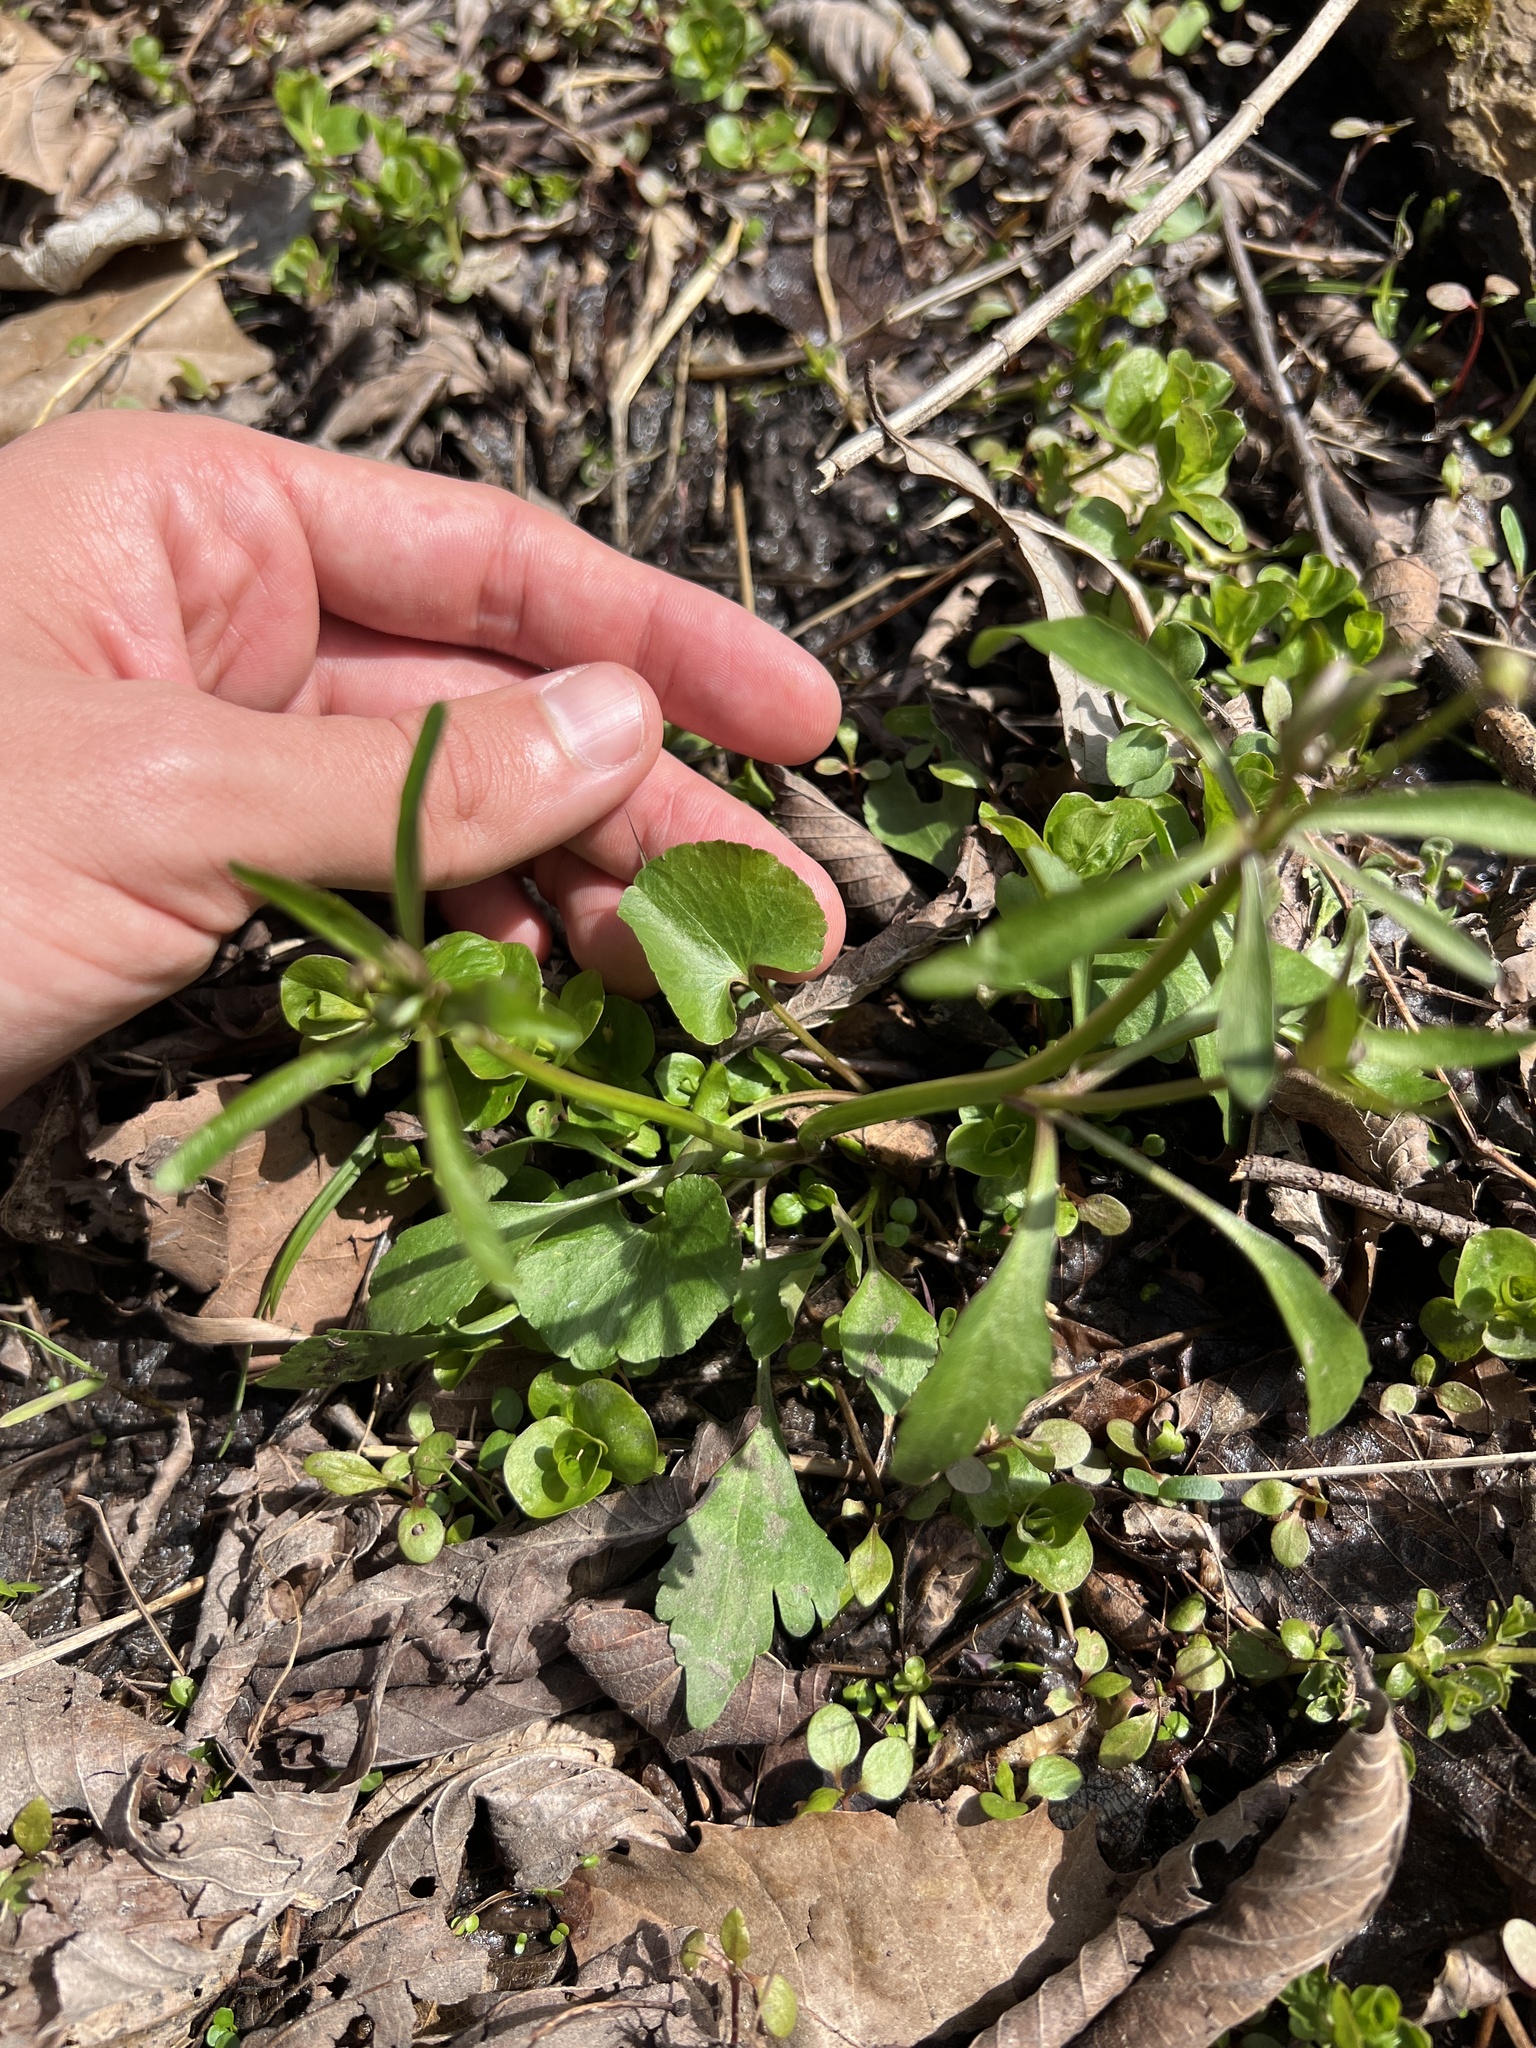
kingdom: Plantae
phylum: Tracheophyta
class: Magnoliopsida
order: Ranunculales
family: Ranunculaceae
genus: Ranunculus
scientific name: Ranunculus abortivus
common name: Early wood buttercup
